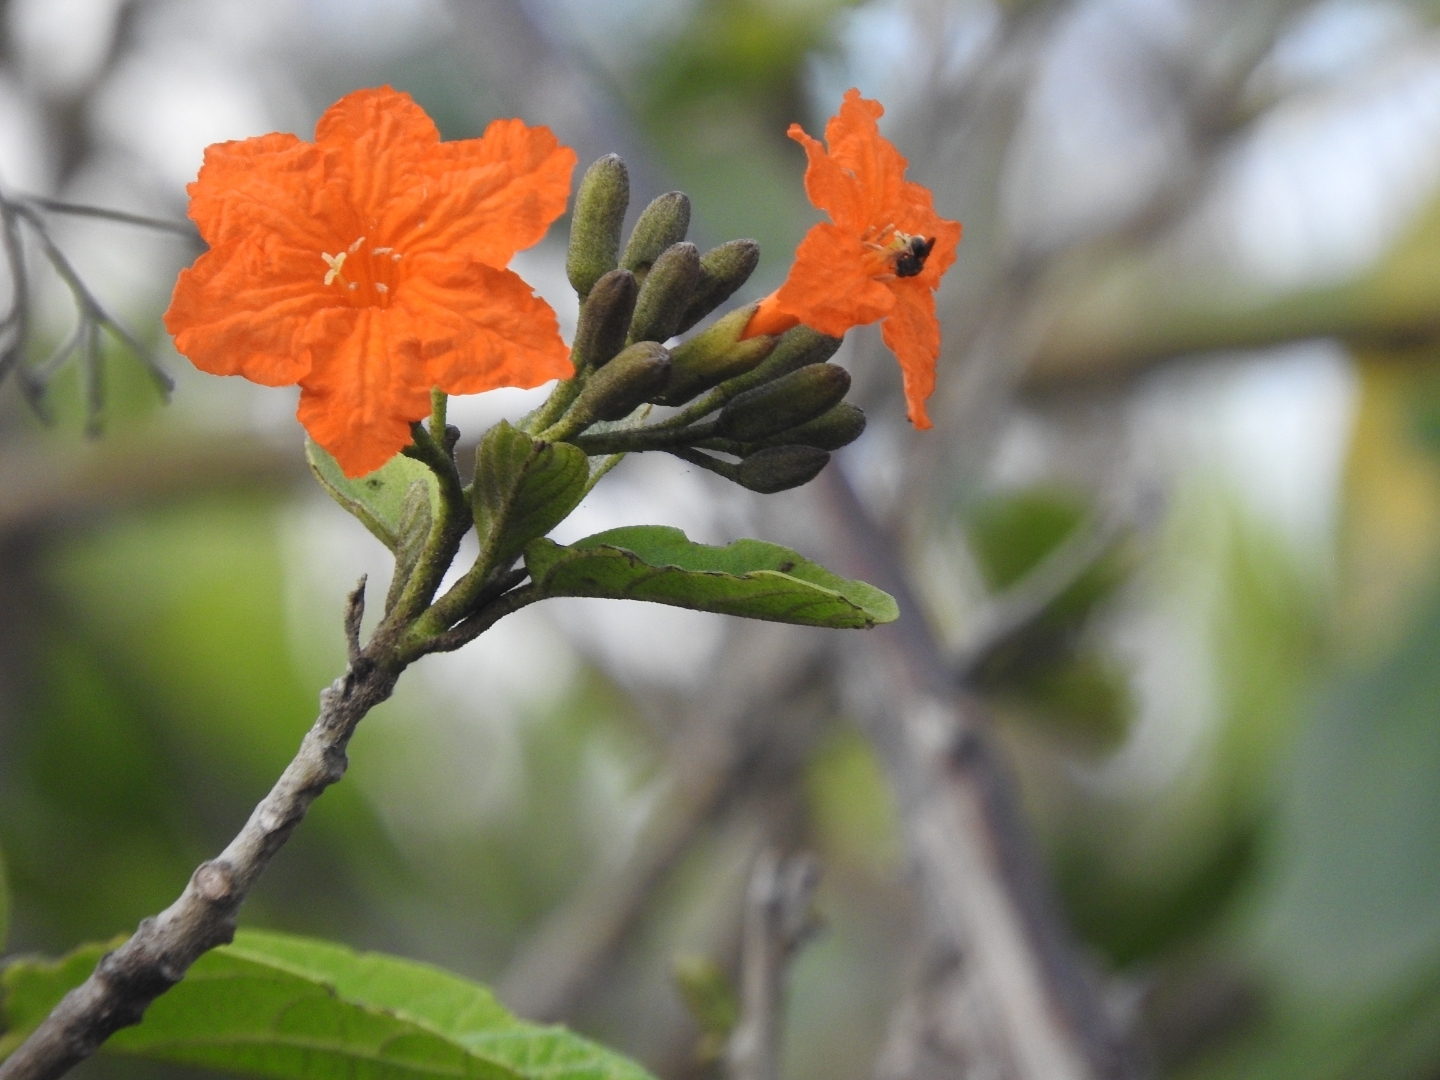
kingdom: Plantae
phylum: Tracheophyta
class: Magnoliopsida
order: Boraginales
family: Cordiaceae
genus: Cordia
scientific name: Cordia sebestena
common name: Largeleaf geigertree
